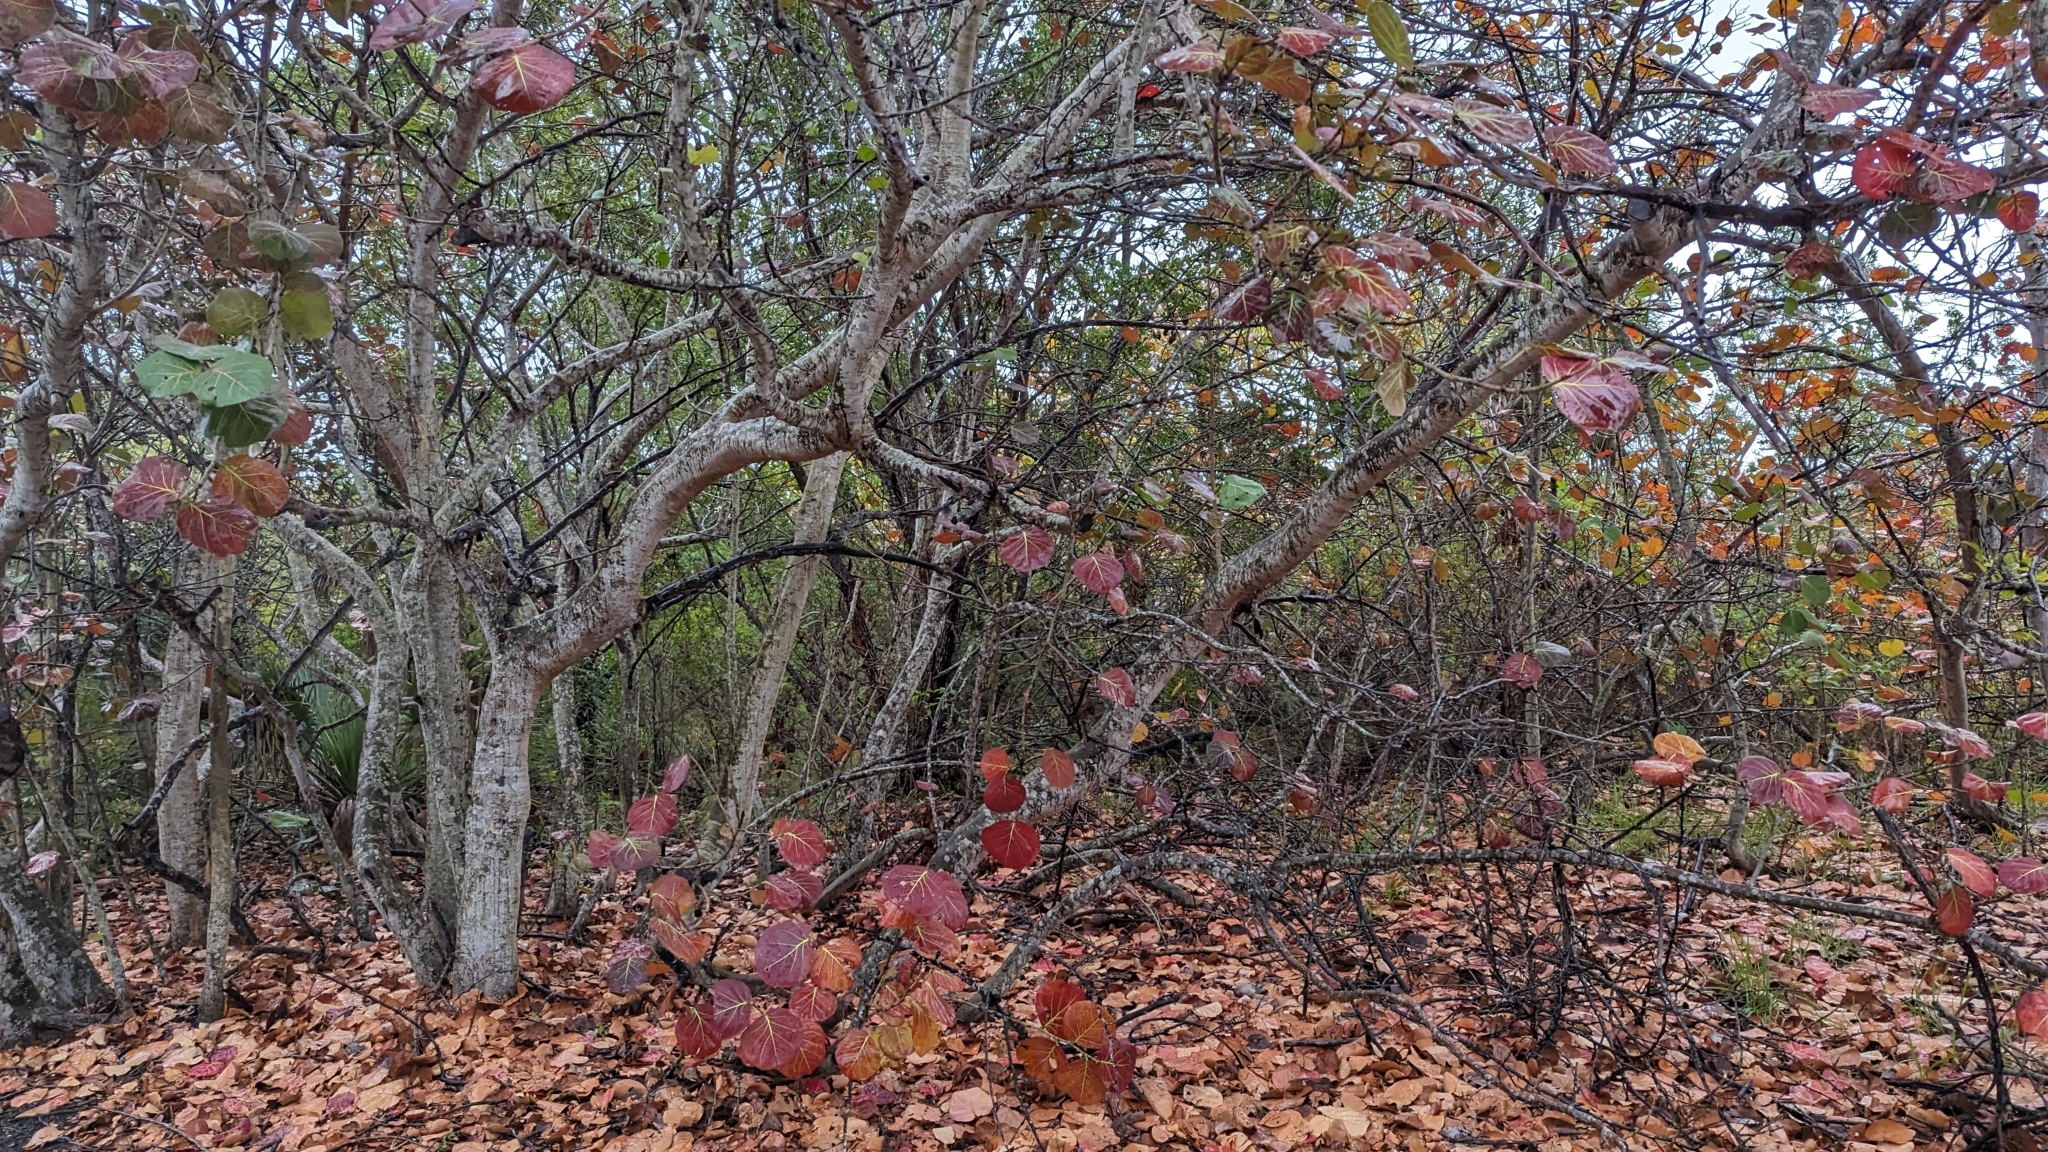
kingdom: Plantae
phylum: Tracheophyta
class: Magnoliopsida
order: Caryophyllales
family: Polygonaceae
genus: Coccoloba
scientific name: Coccoloba uvifera
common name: Seagrape
